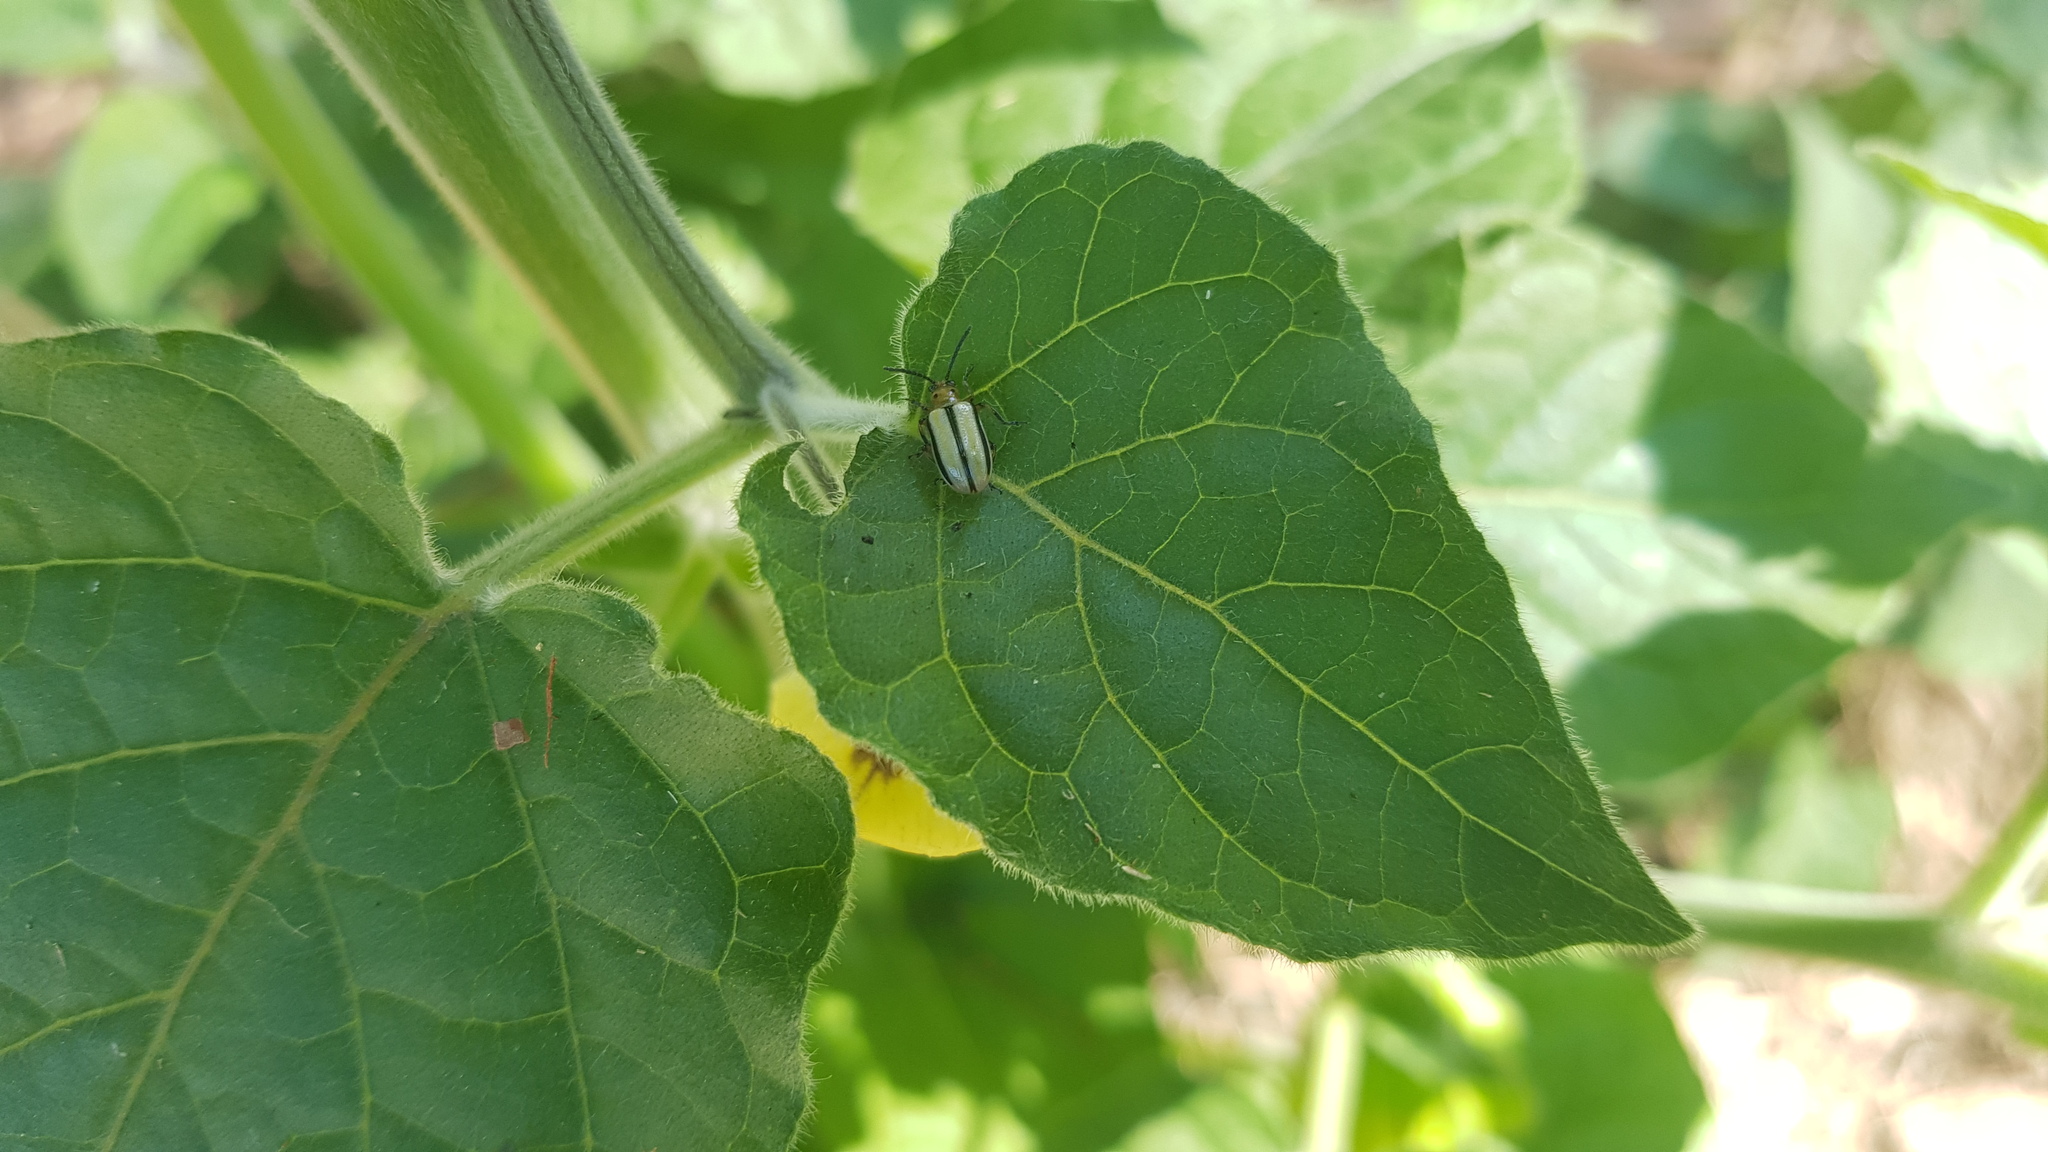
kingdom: Animalia
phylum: Arthropoda
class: Insecta
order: Coleoptera
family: Chrysomelidae
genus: Lema
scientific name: Lema daturaphila
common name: Leaf beetle
